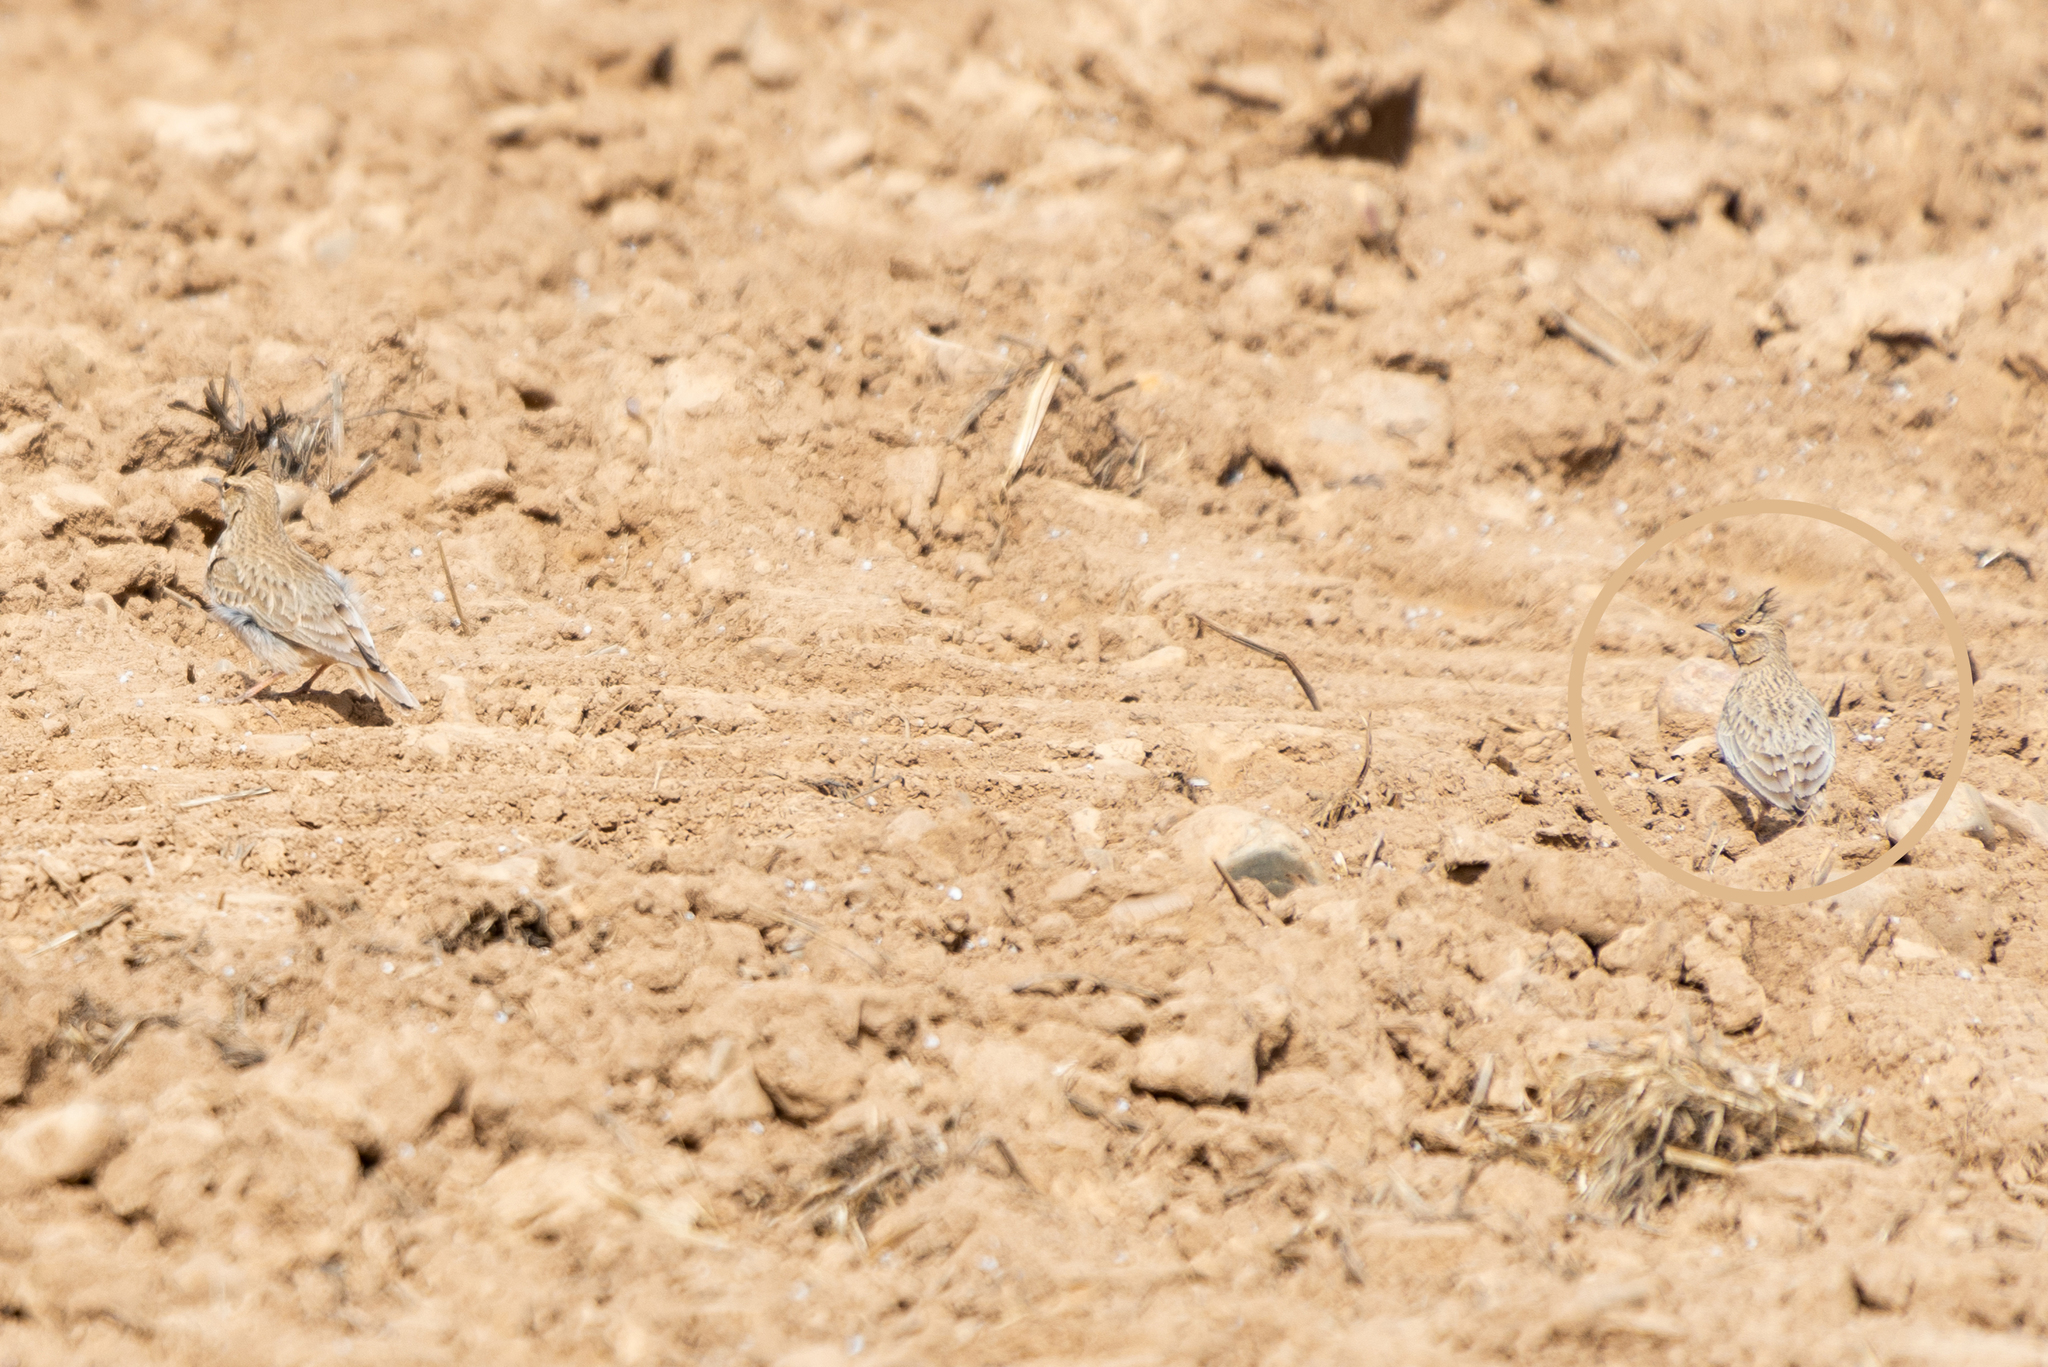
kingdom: Animalia
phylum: Chordata
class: Aves
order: Passeriformes
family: Alaudidae
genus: Galerida
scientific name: Galerida cristata
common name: Crested lark
